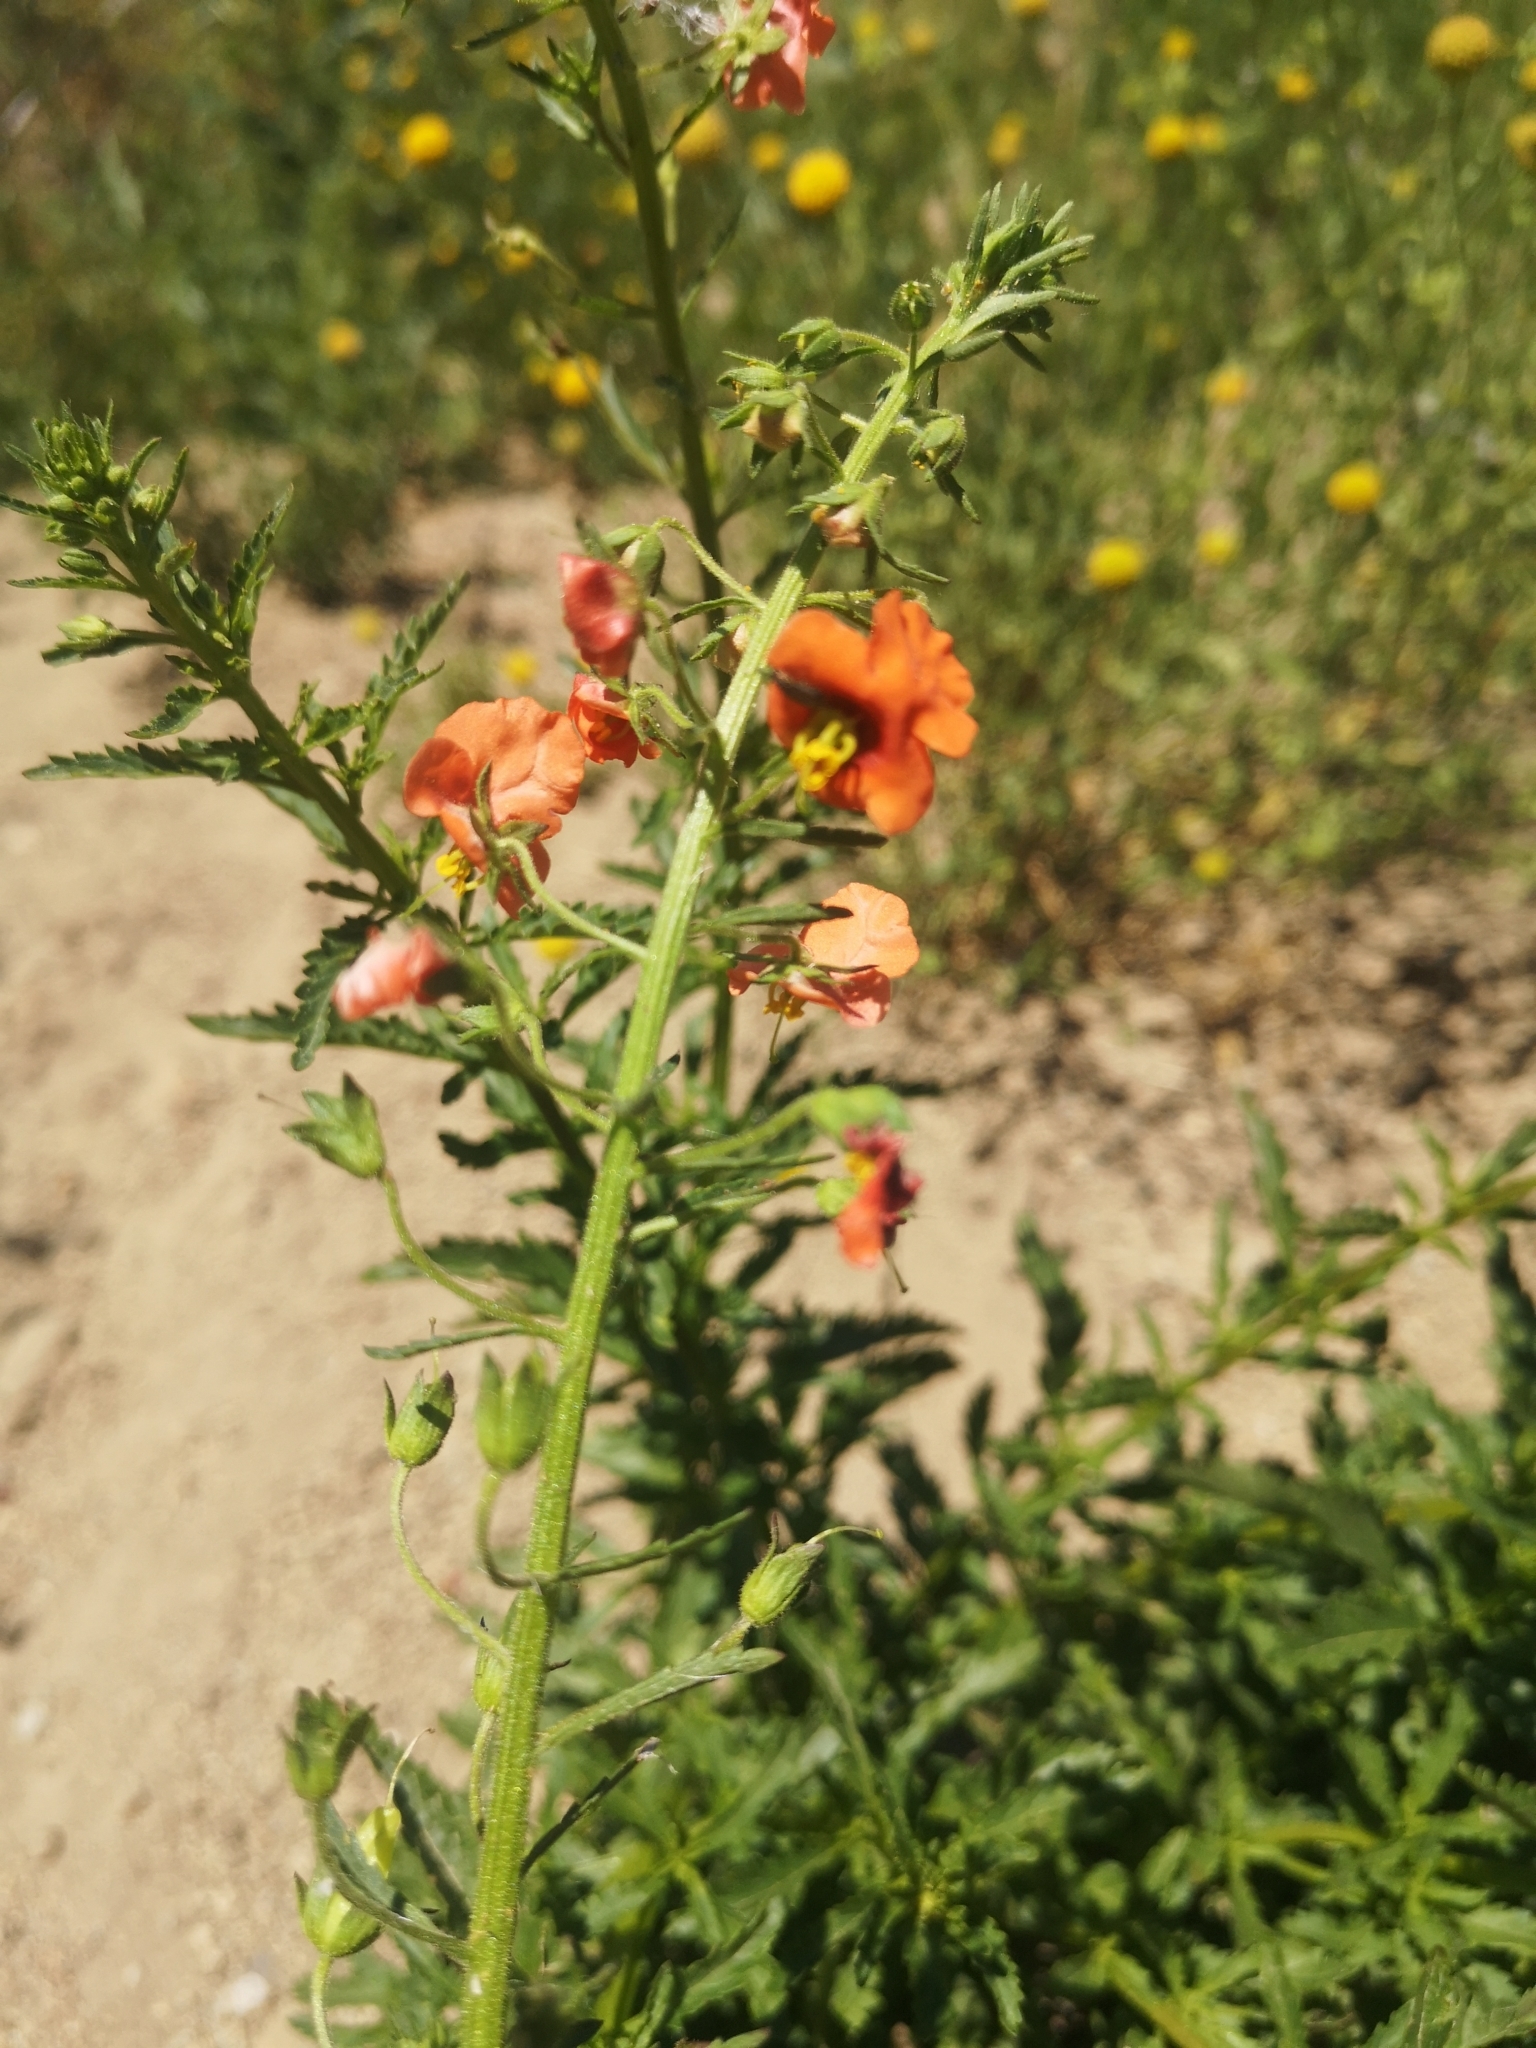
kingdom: Plantae
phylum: Tracheophyta
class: Magnoliopsida
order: Lamiales
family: Scrophulariaceae
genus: Alonsoa
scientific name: Alonsoa meridionalis
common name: Maskflower
